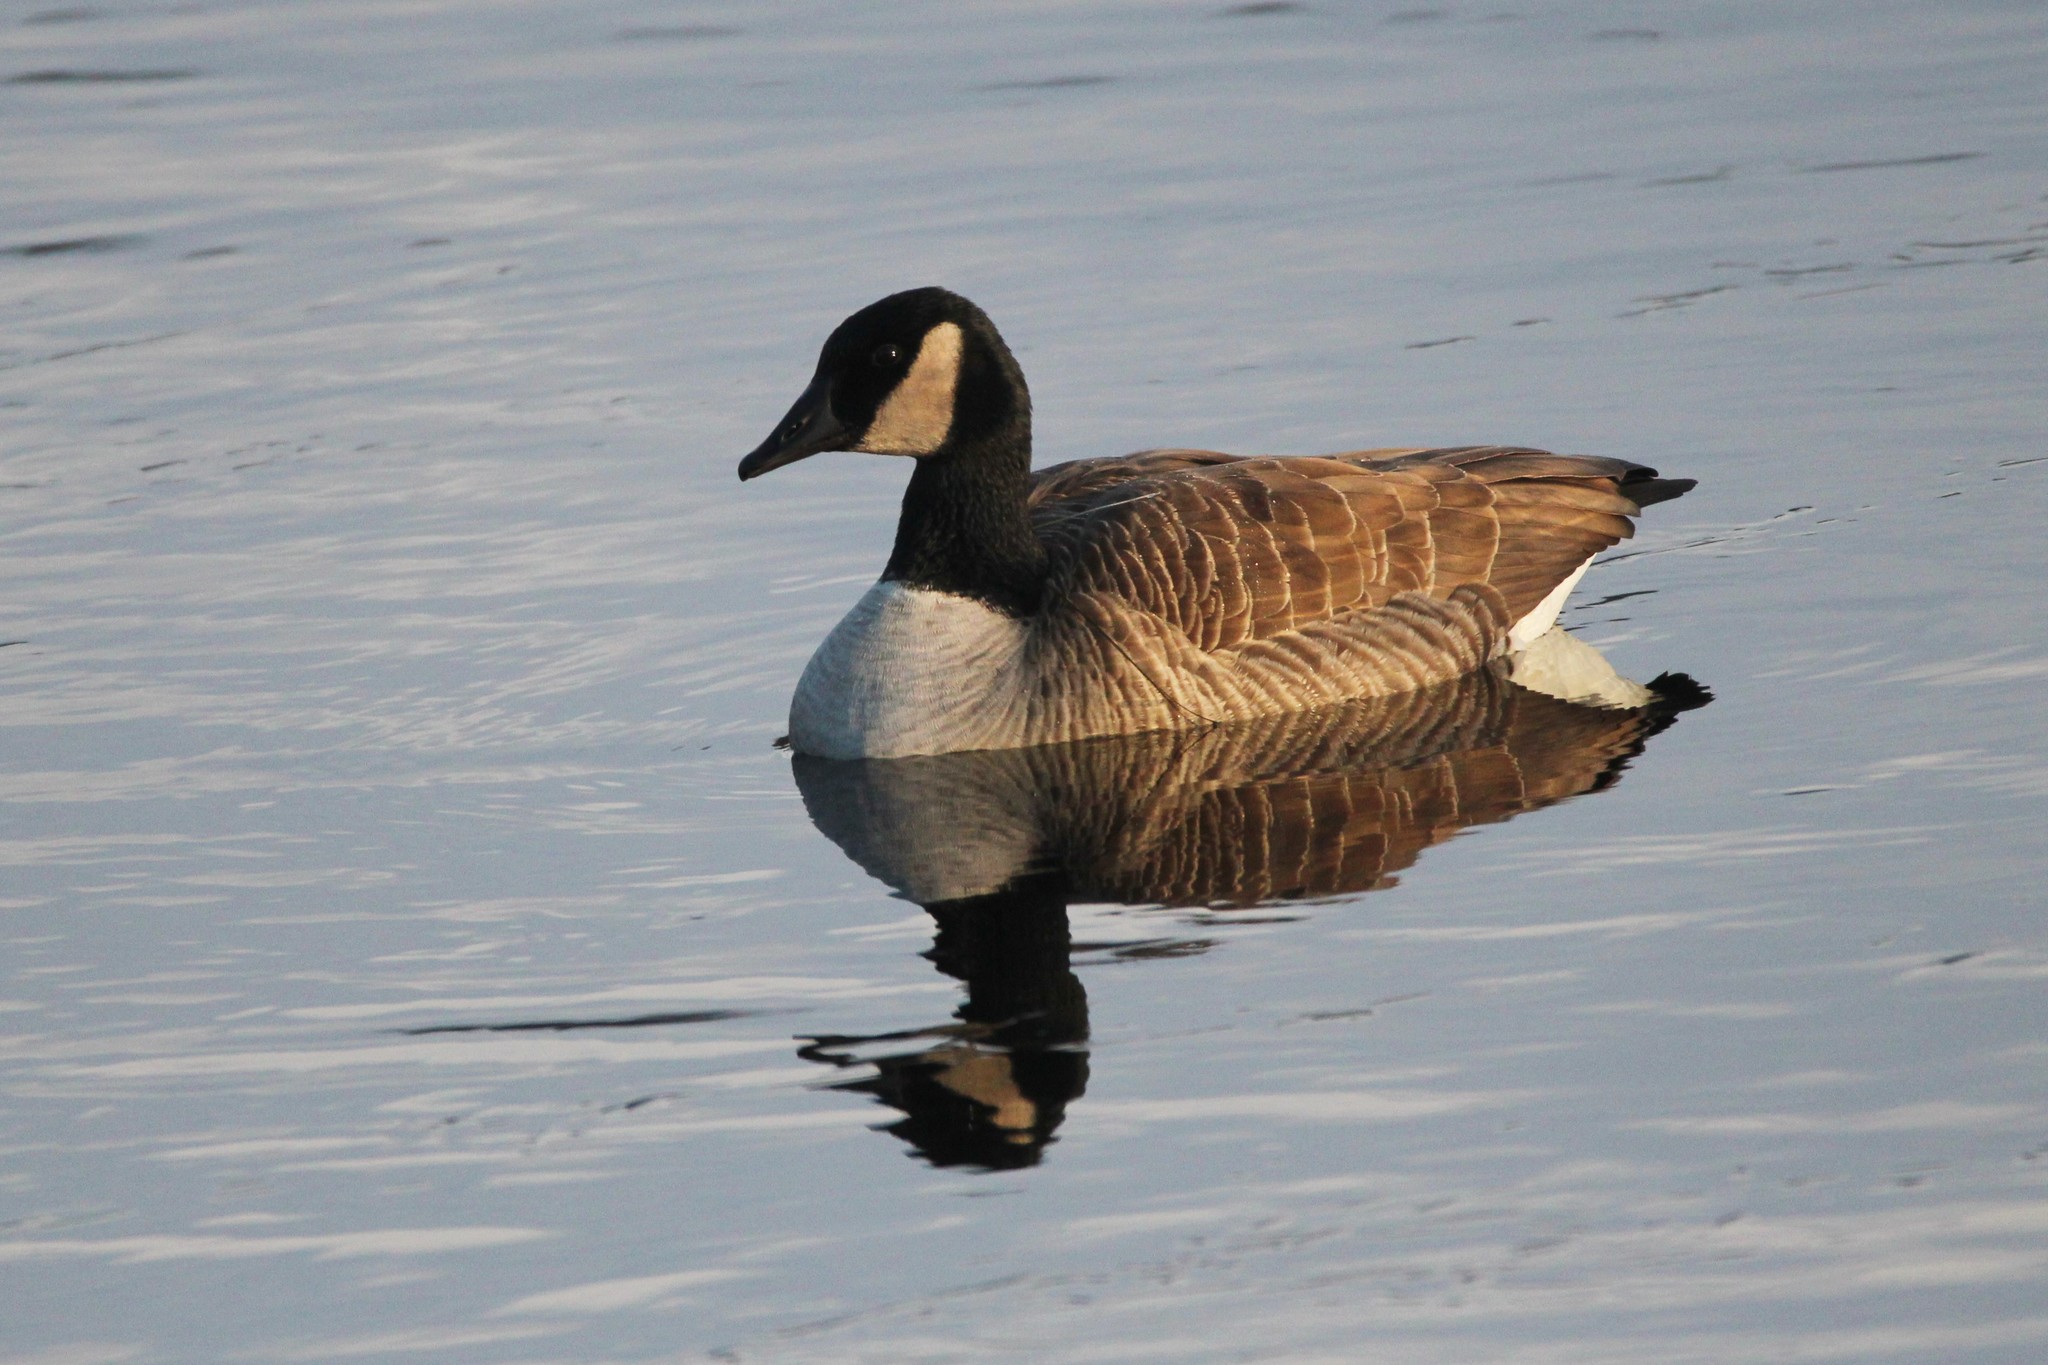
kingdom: Animalia
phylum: Chordata
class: Aves
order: Anseriformes
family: Anatidae
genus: Branta
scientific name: Branta canadensis
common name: Canada goose
